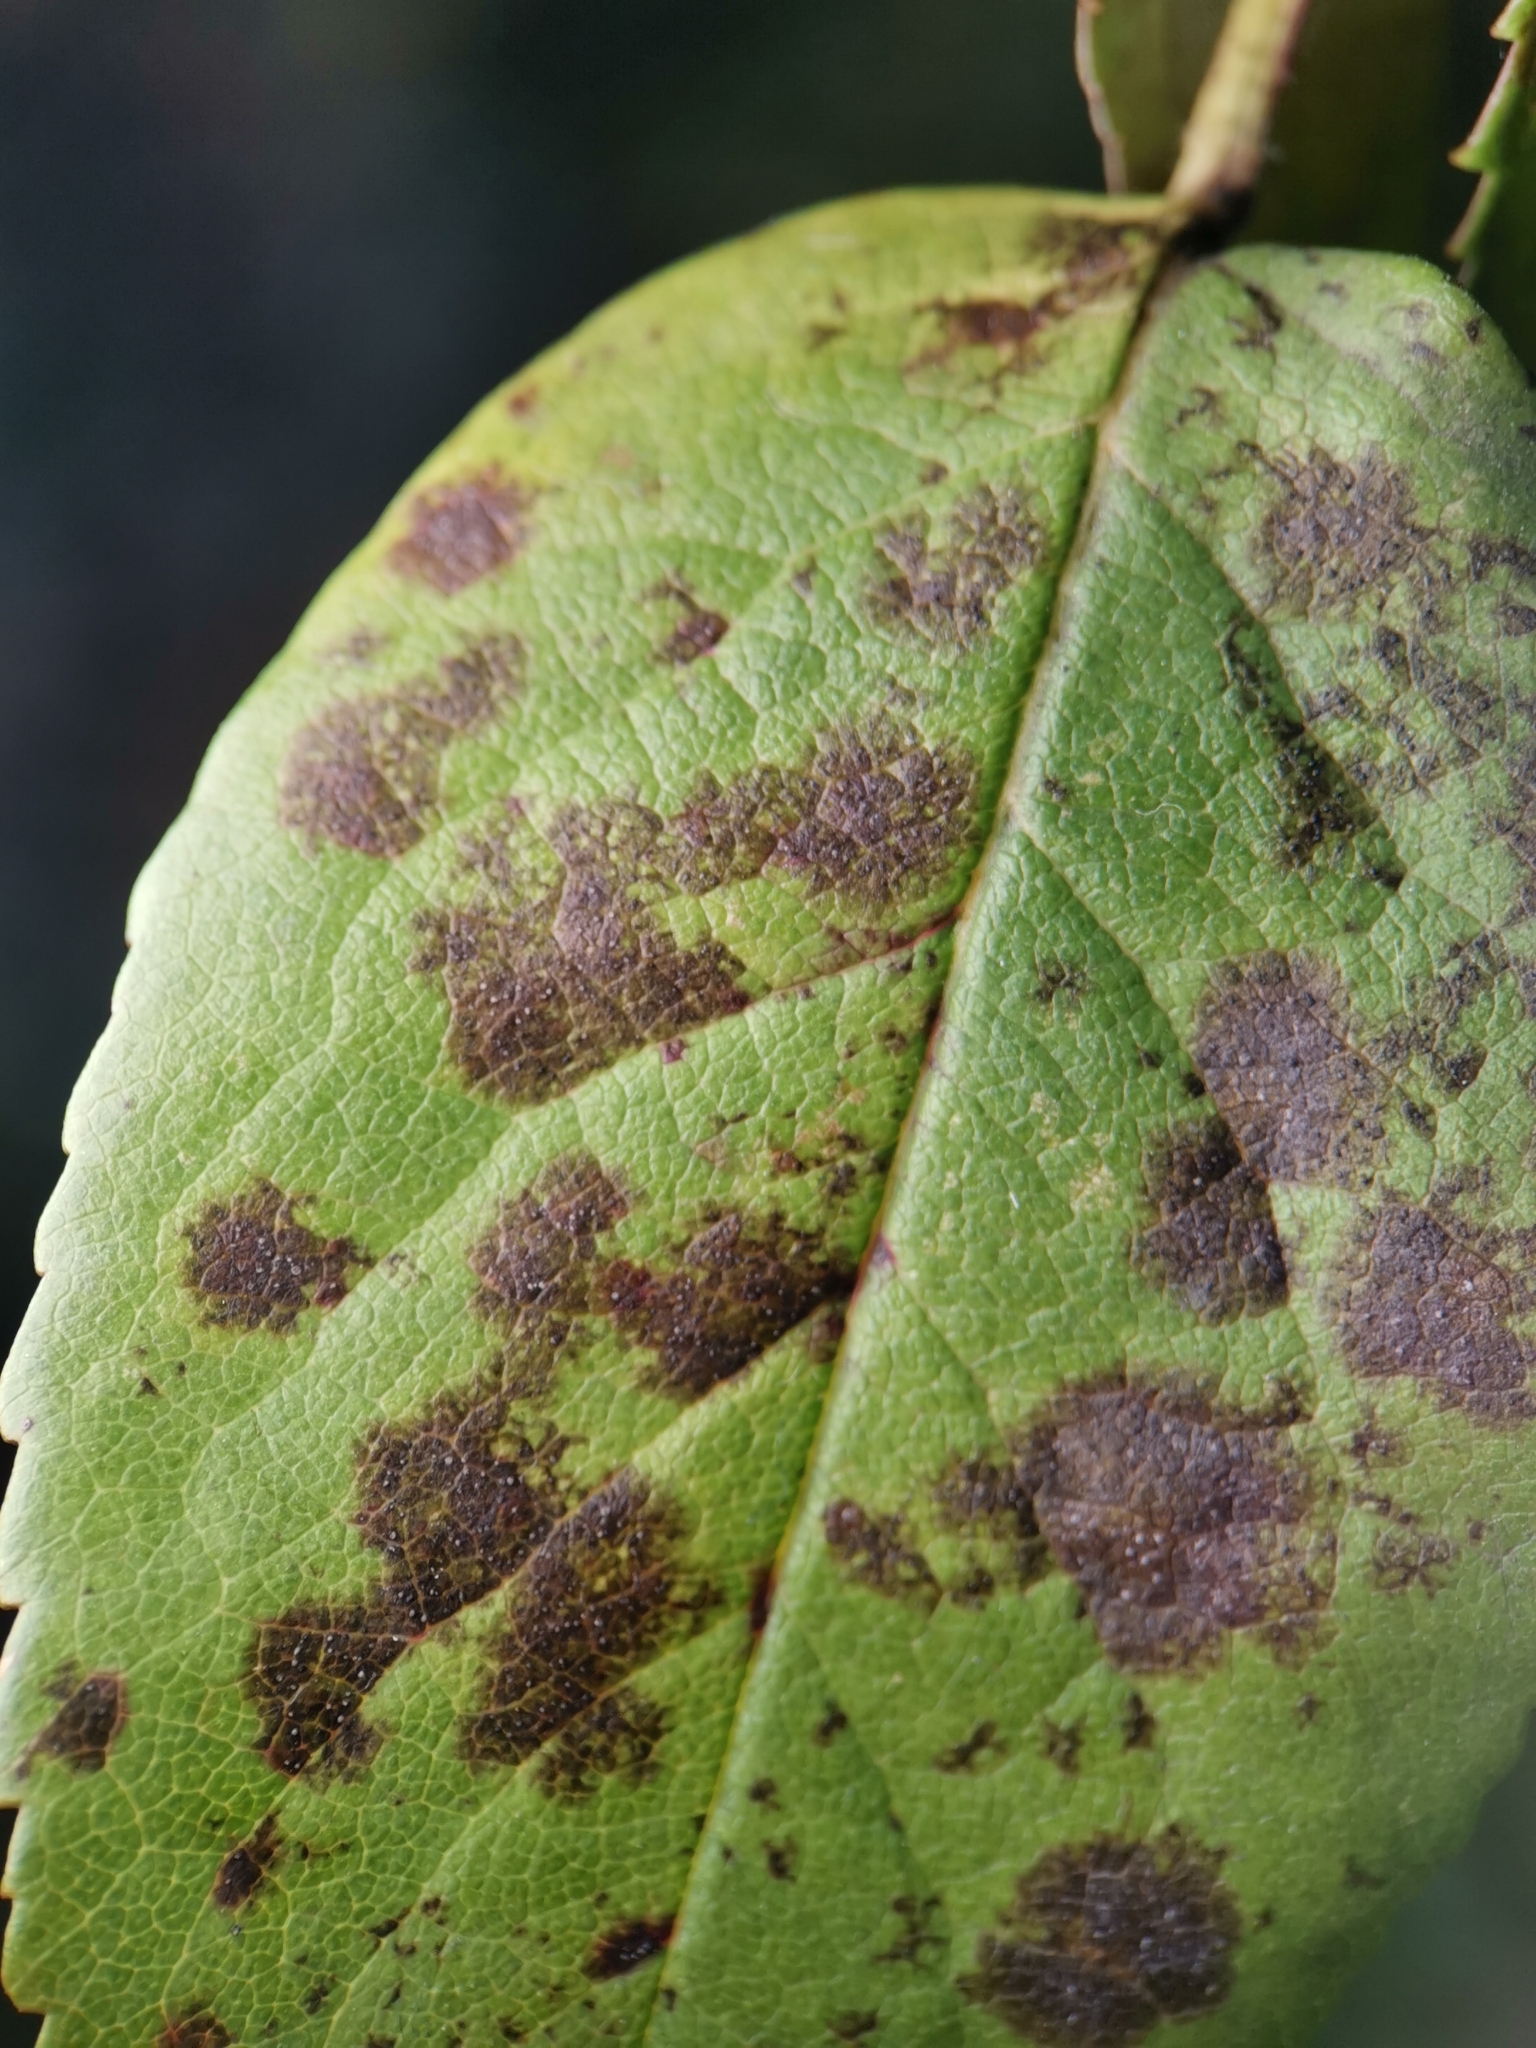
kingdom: Fungi
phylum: Ascomycota
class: Leotiomycetes
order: Helotiales
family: Drepanopezizaceae
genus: Diplocarpon
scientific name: Diplocarpon rosae
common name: Rose black-spot
